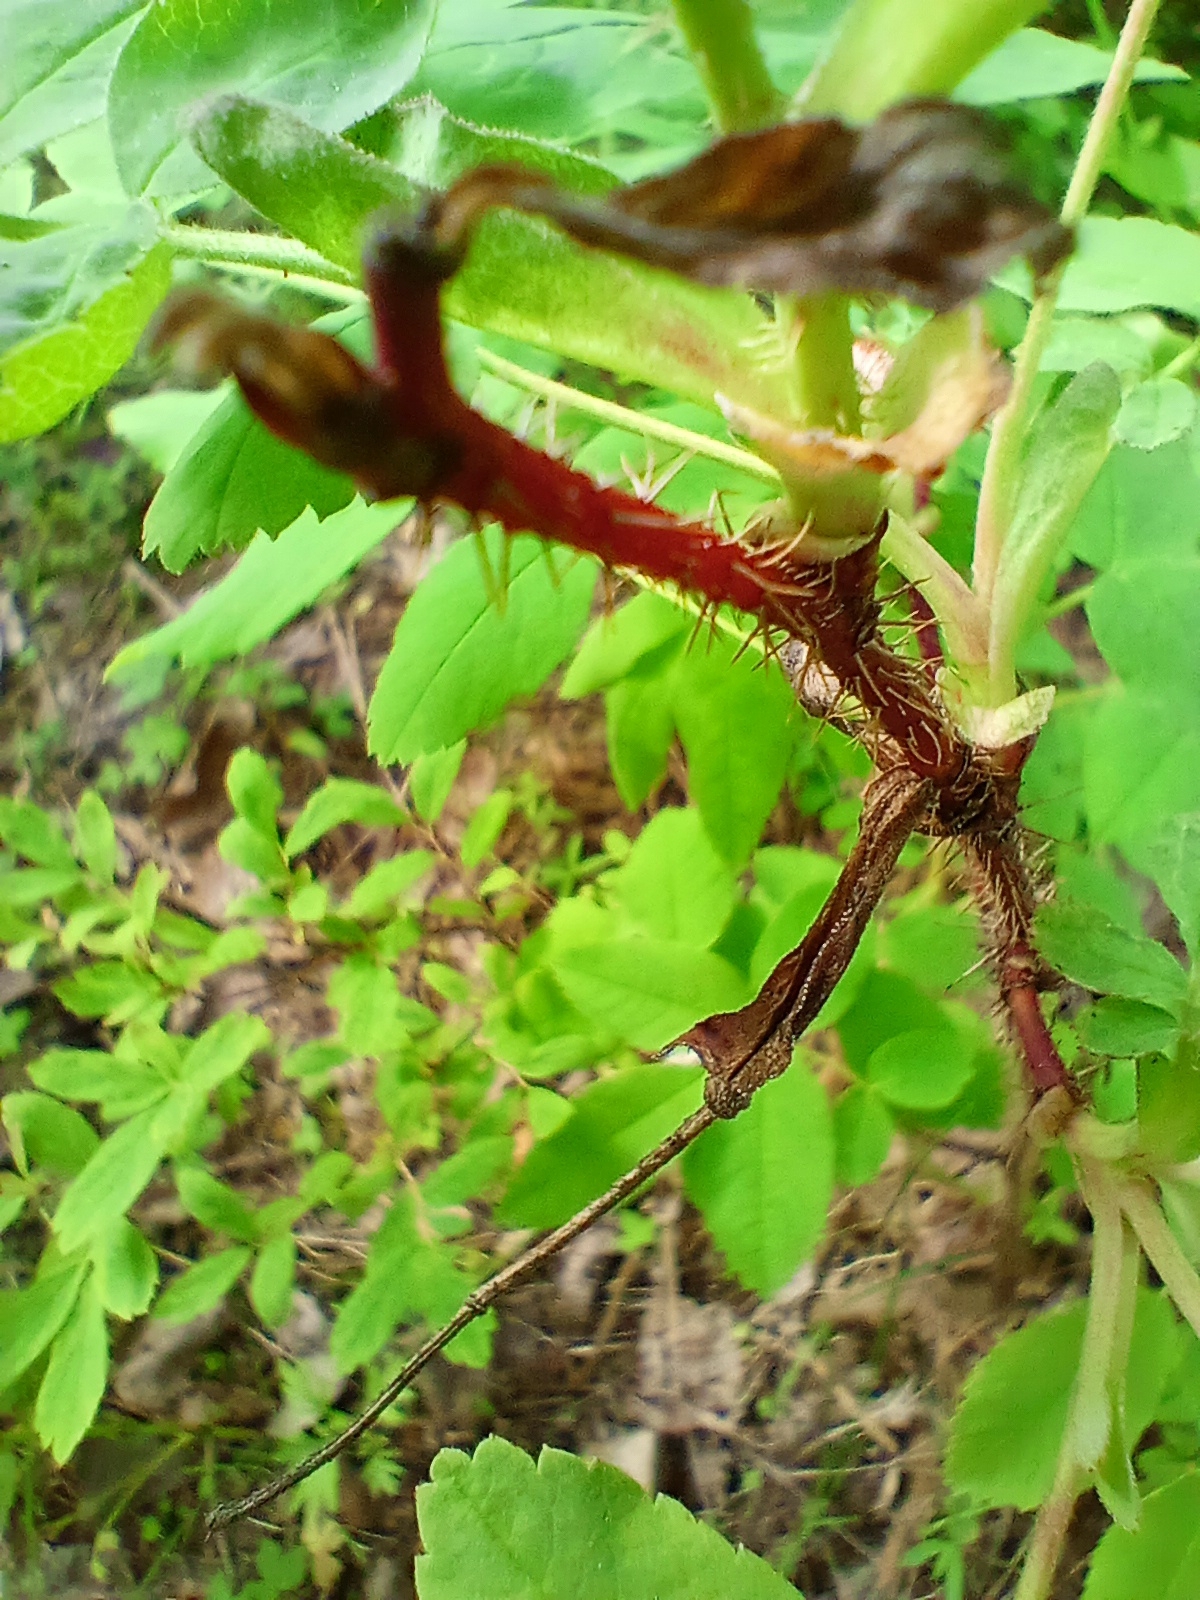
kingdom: Plantae
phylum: Tracheophyta
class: Magnoliopsida
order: Rosales
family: Rosaceae
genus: Rosa
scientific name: Rosa acicularis
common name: Prickly rose
